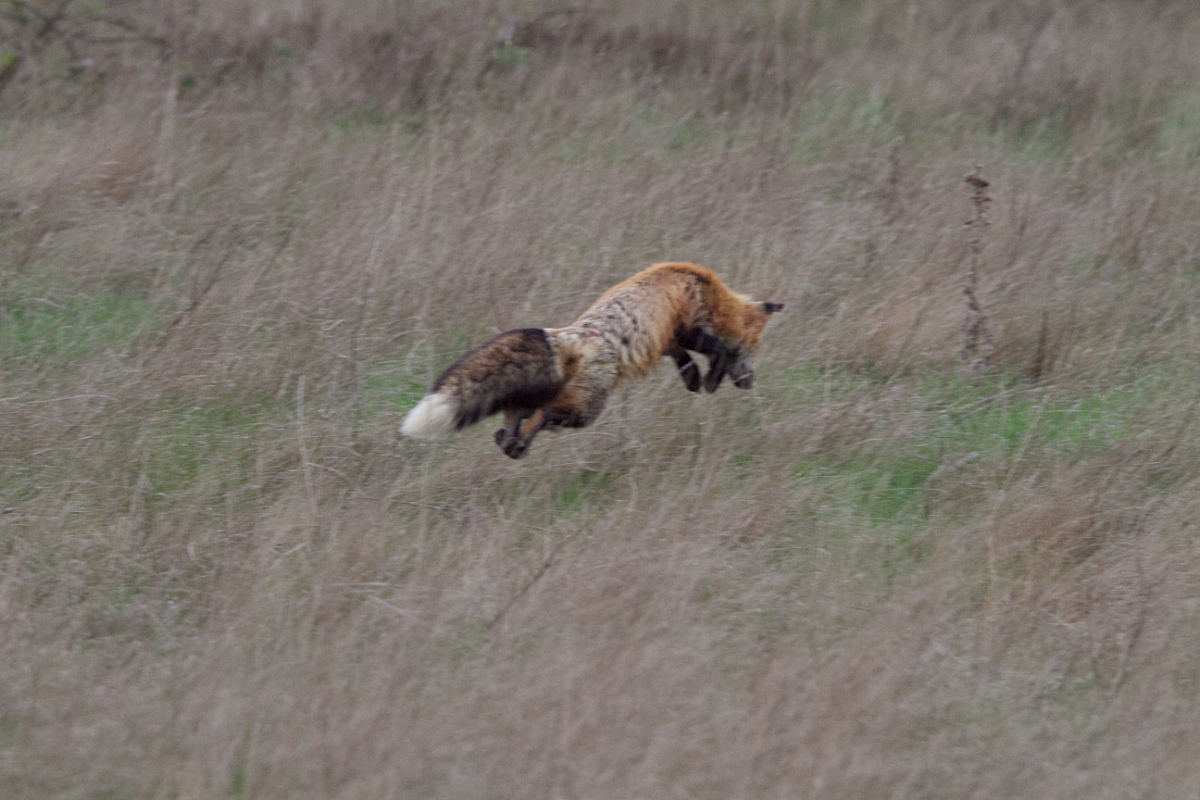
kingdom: Animalia
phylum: Chordata
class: Mammalia
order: Carnivora
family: Canidae
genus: Vulpes
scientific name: Vulpes vulpes
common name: Red fox
